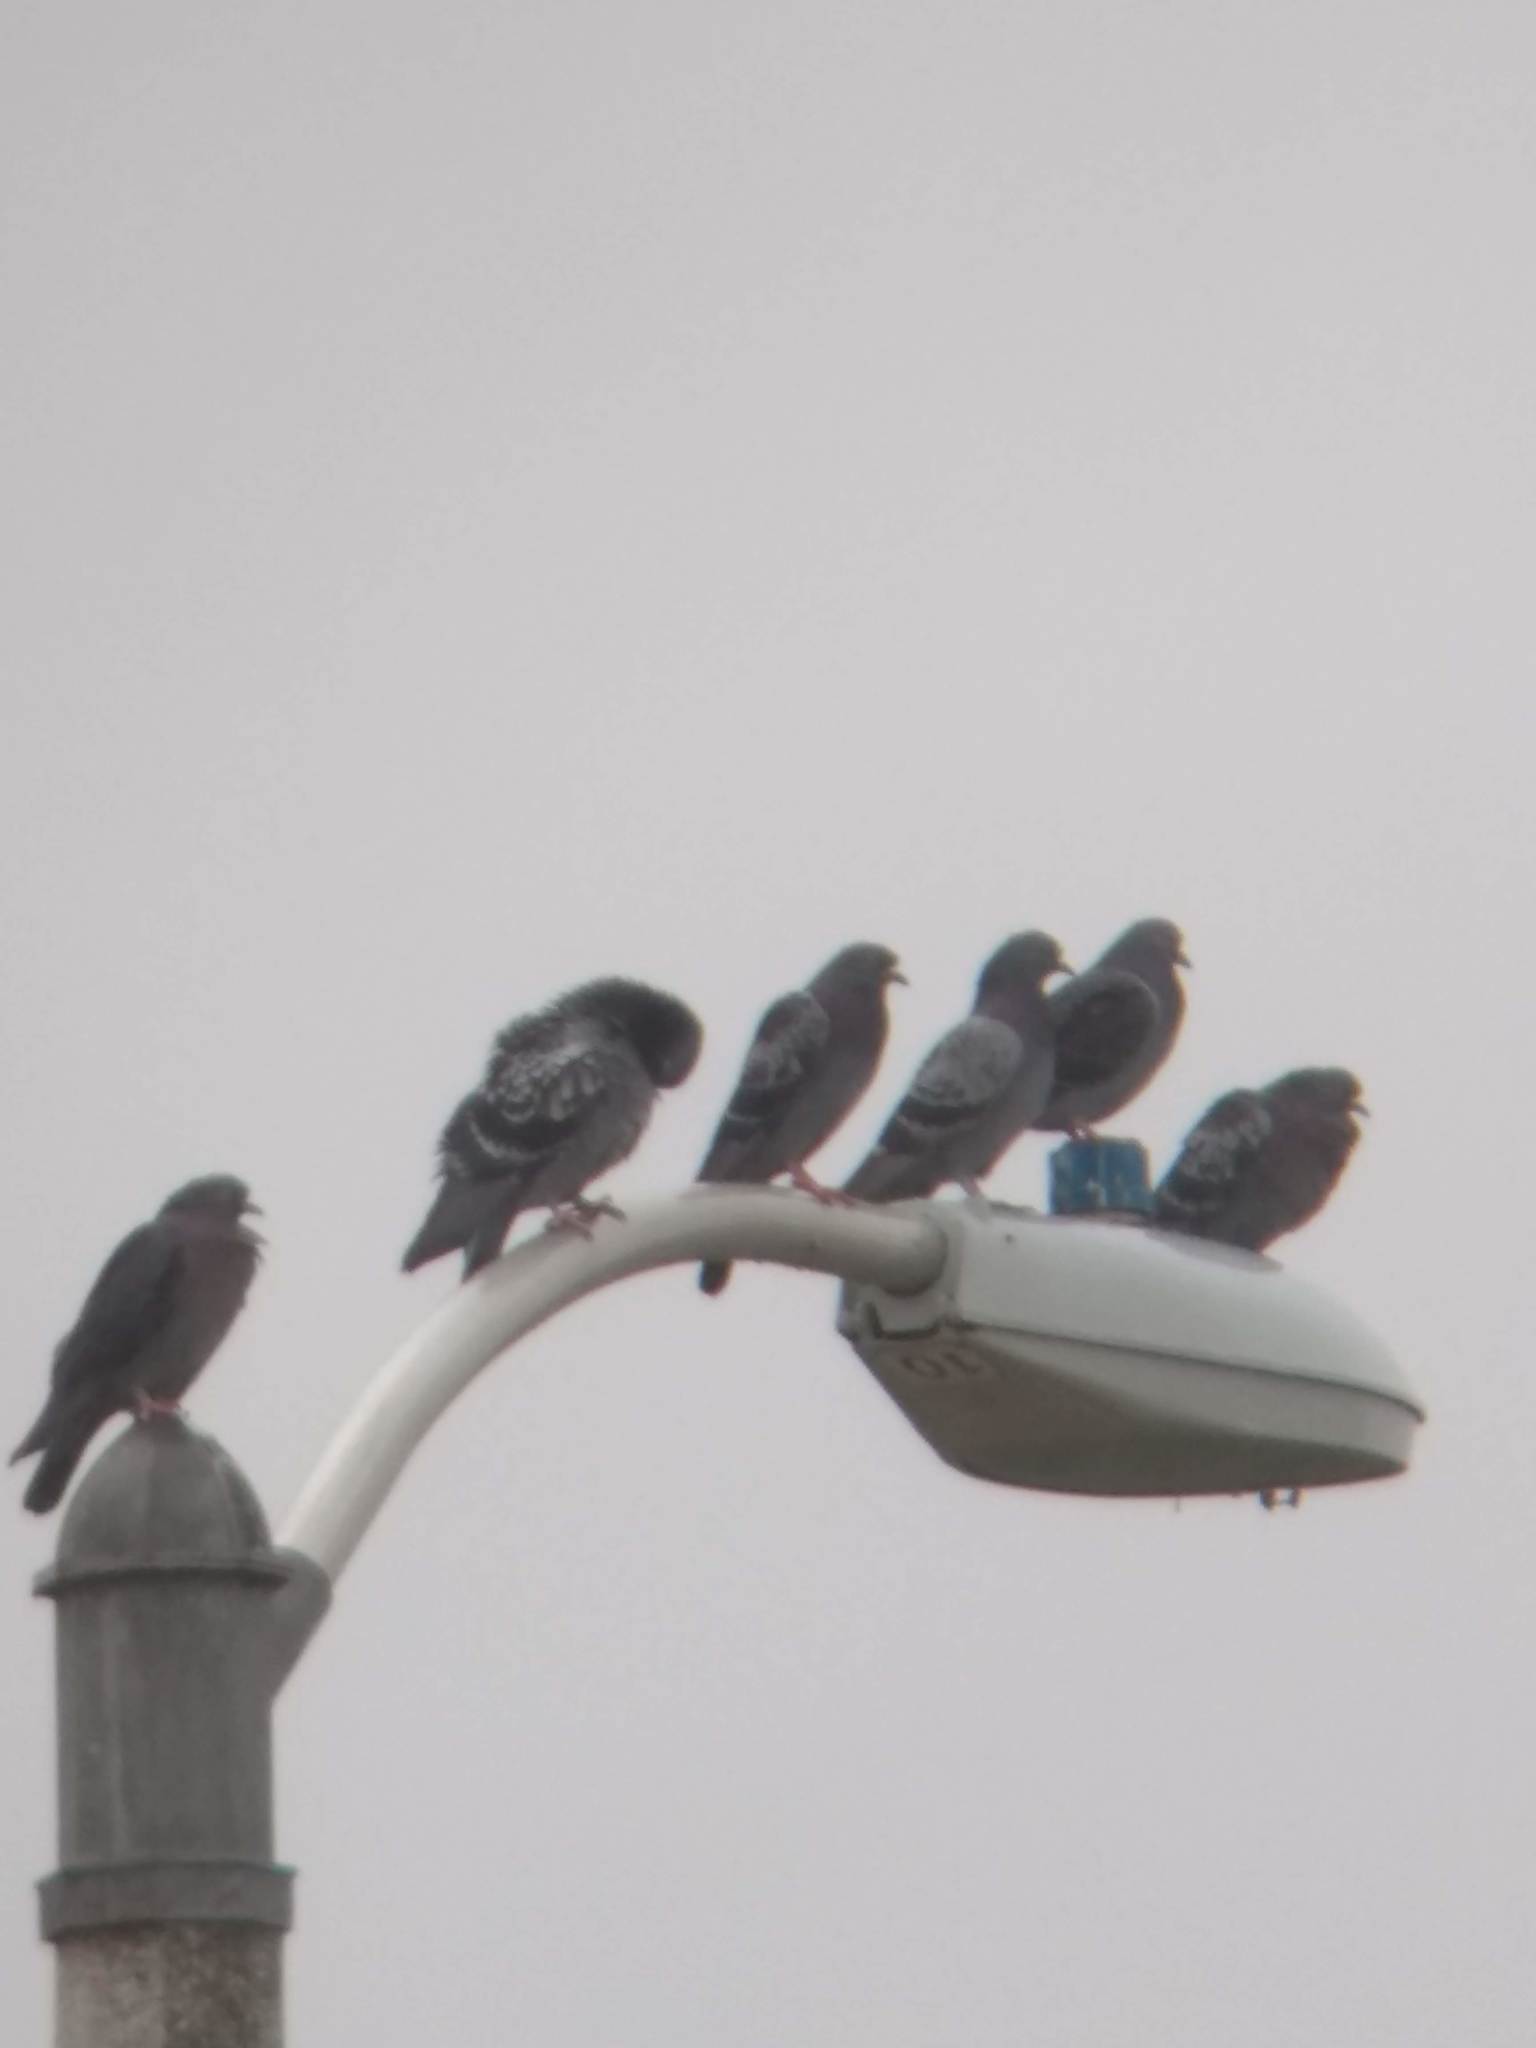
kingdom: Animalia
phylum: Chordata
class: Aves
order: Columbiformes
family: Columbidae
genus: Columba
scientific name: Columba livia
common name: Rock pigeon
